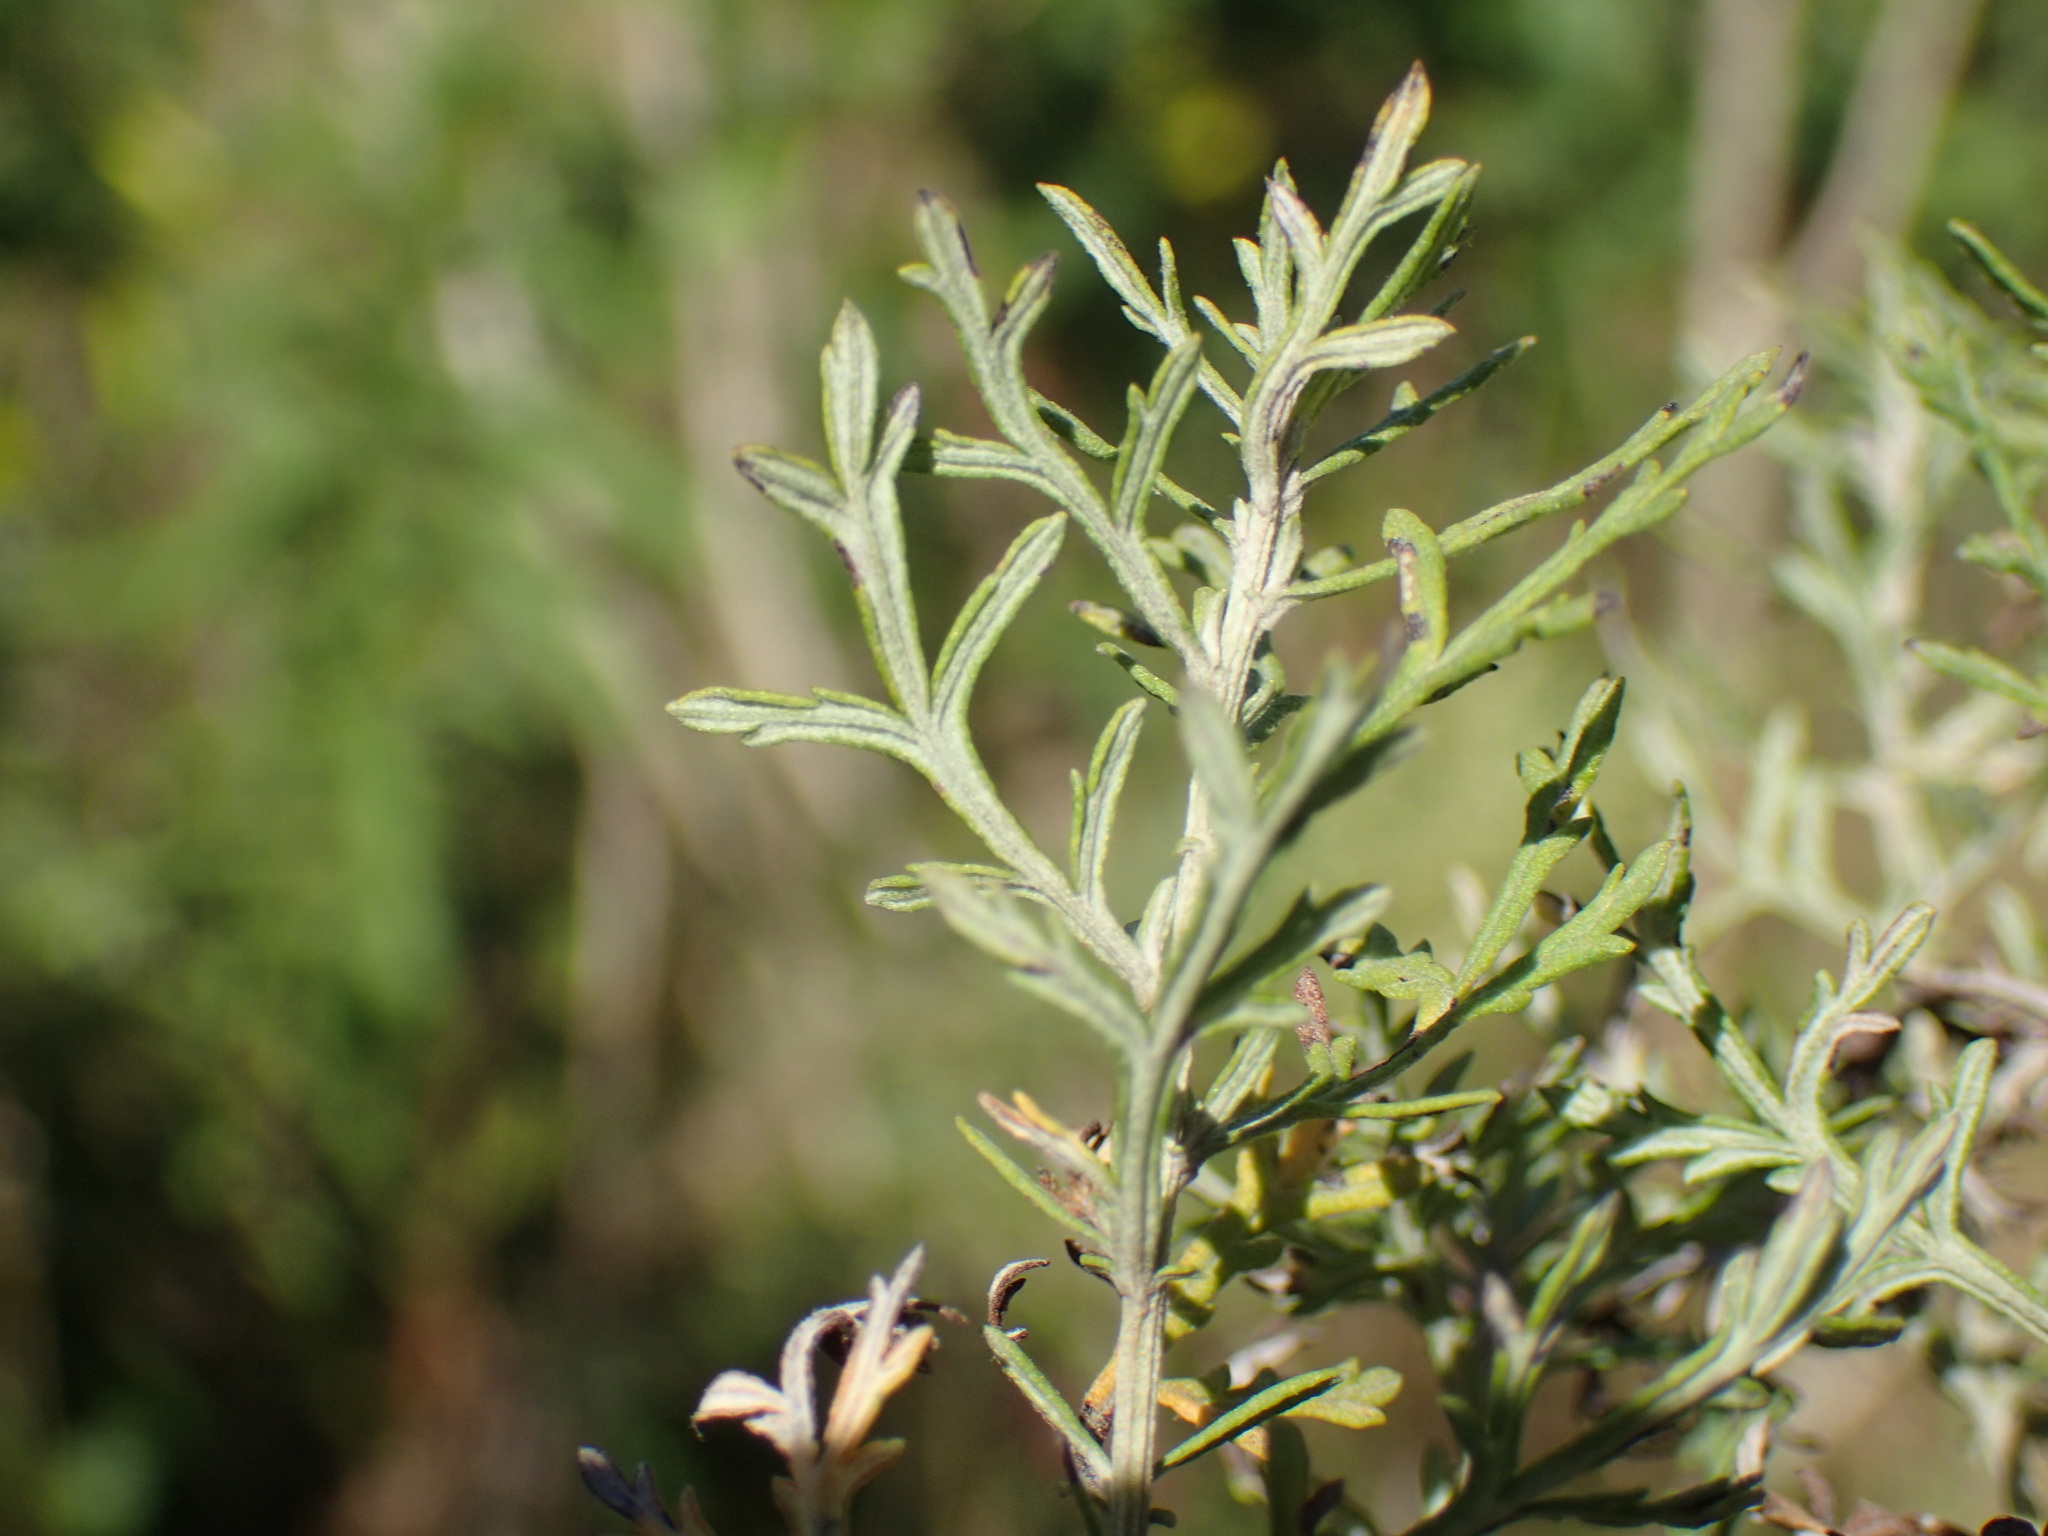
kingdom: Plantae
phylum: Tracheophyta
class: Magnoliopsida
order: Asterales
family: Asteraceae
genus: Artemisia
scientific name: Artemisia afra
